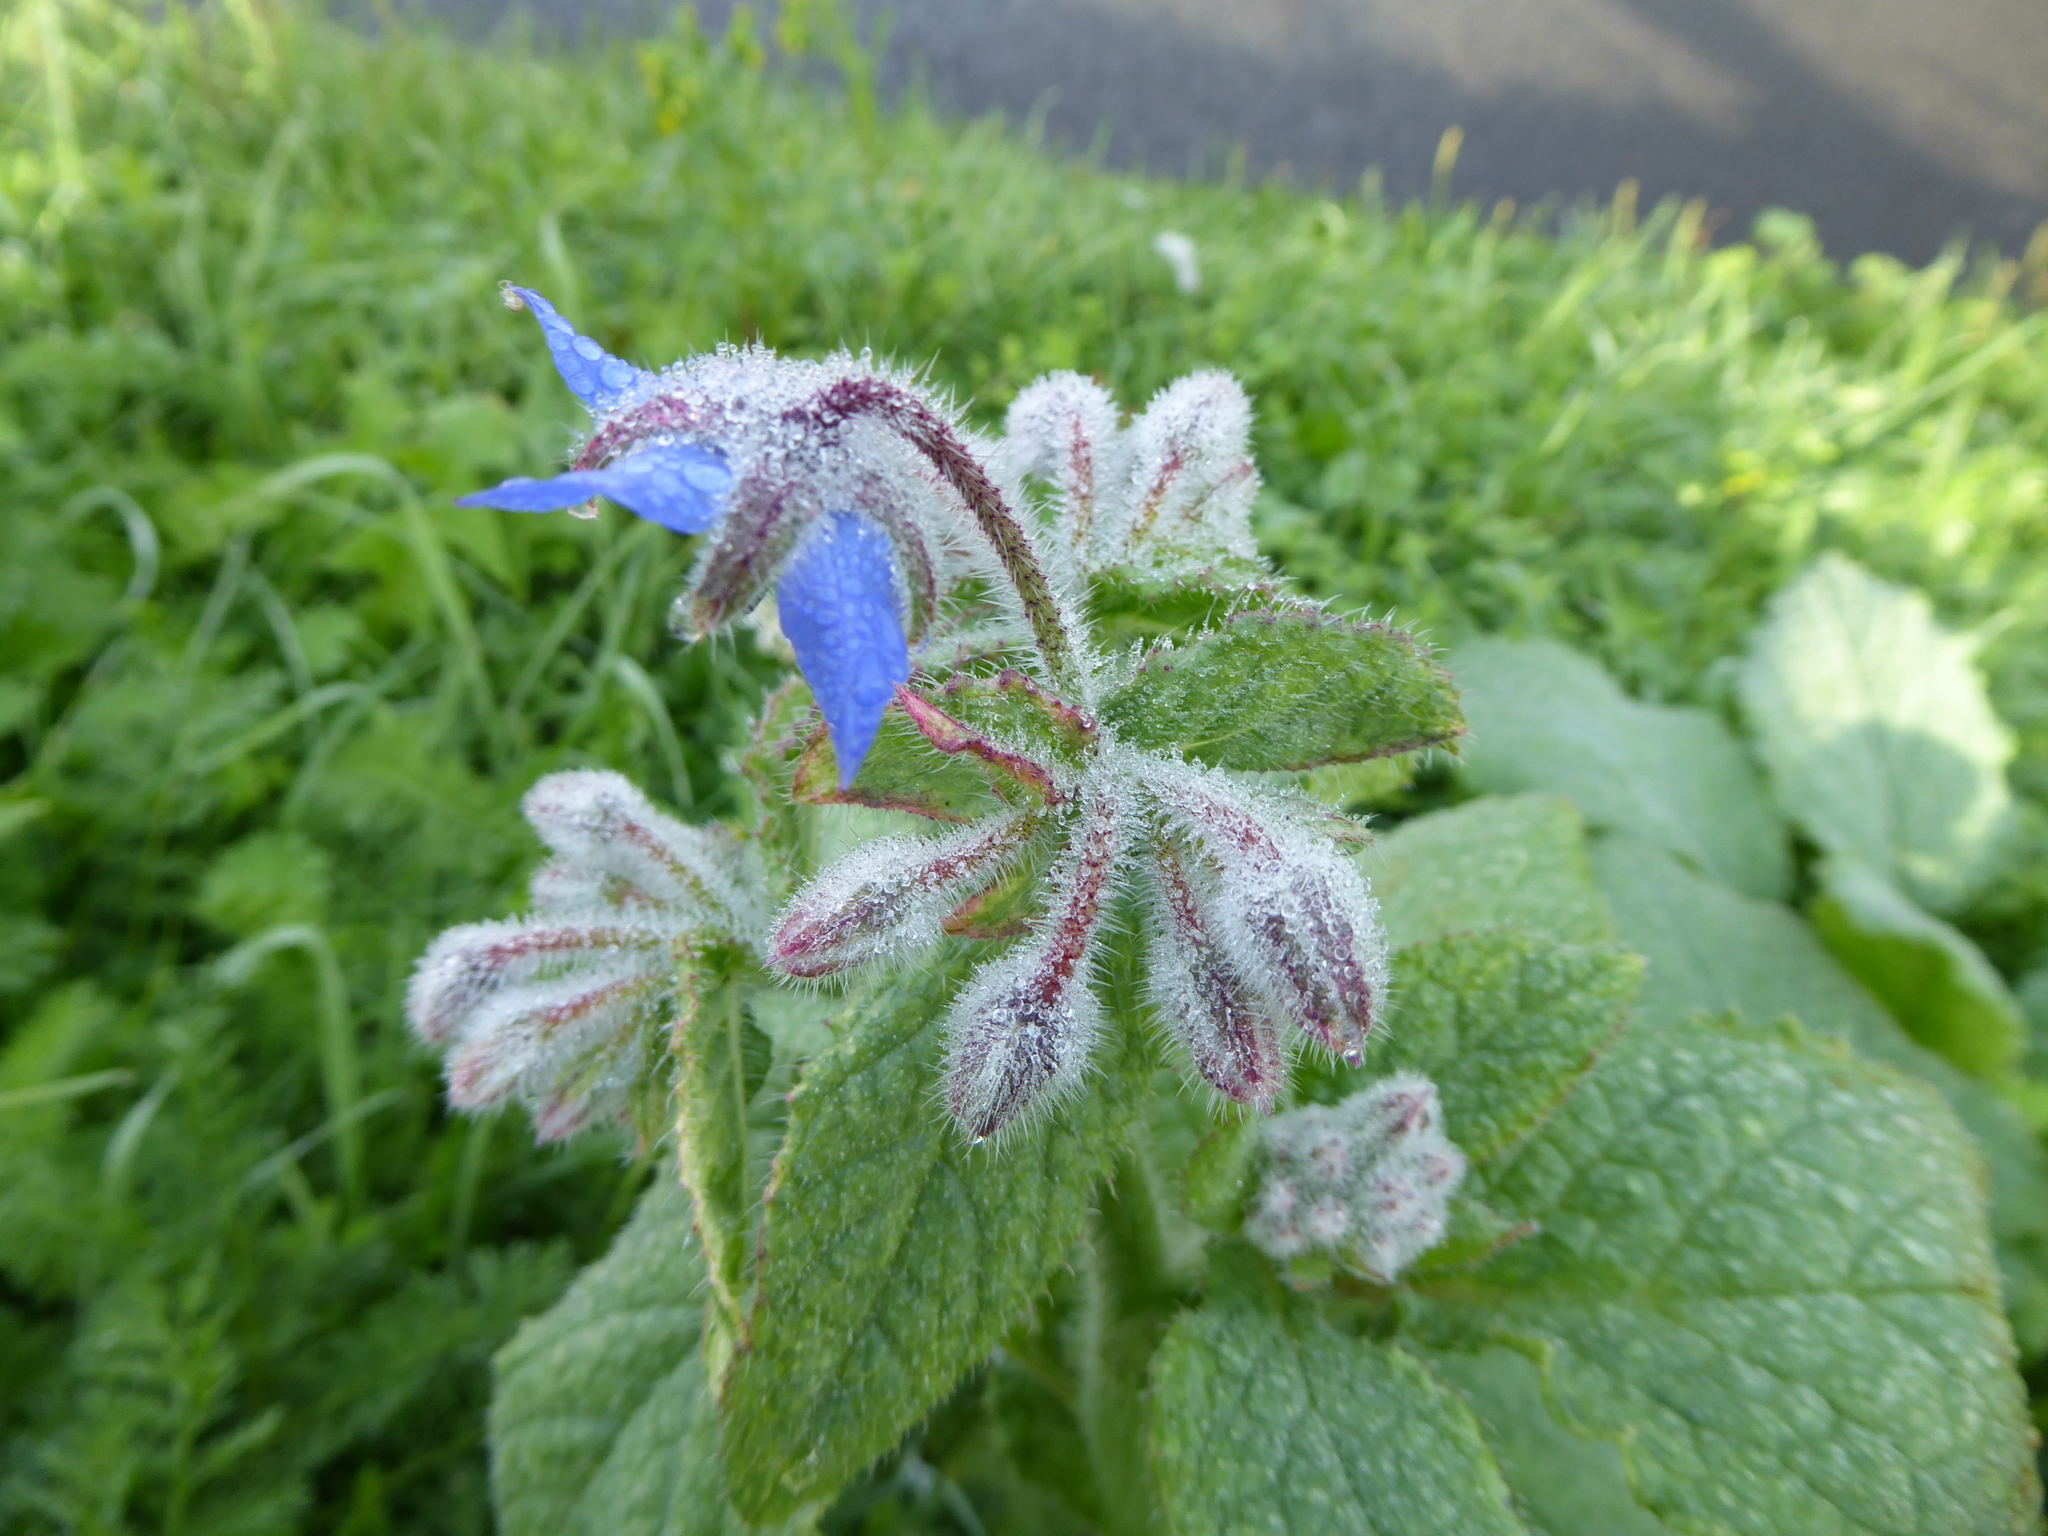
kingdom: Plantae
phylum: Tracheophyta
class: Magnoliopsida
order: Boraginales
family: Boraginaceae
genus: Borago
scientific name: Borago officinalis
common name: Borage
